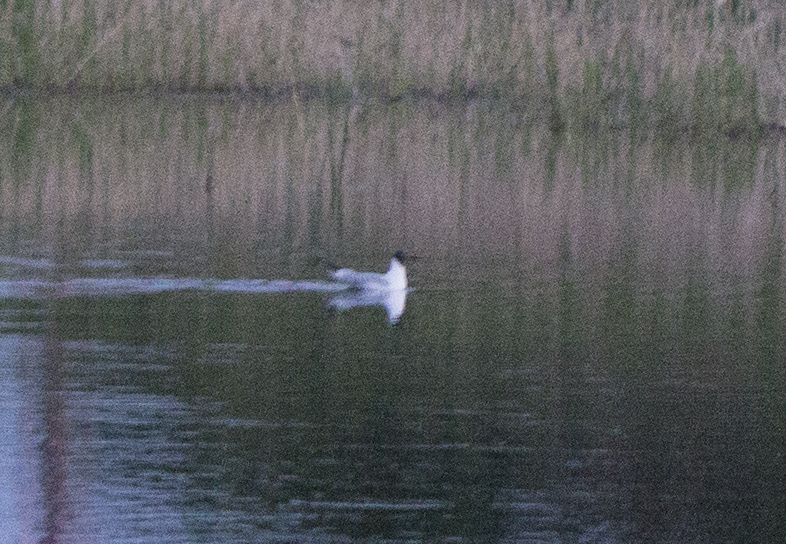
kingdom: Animalia
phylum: Chordata
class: Aves
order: Charadriiformes
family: Laridae
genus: Chroicocephalus
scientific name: Chroicocephalus ridibundus
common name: Black-headed gull
